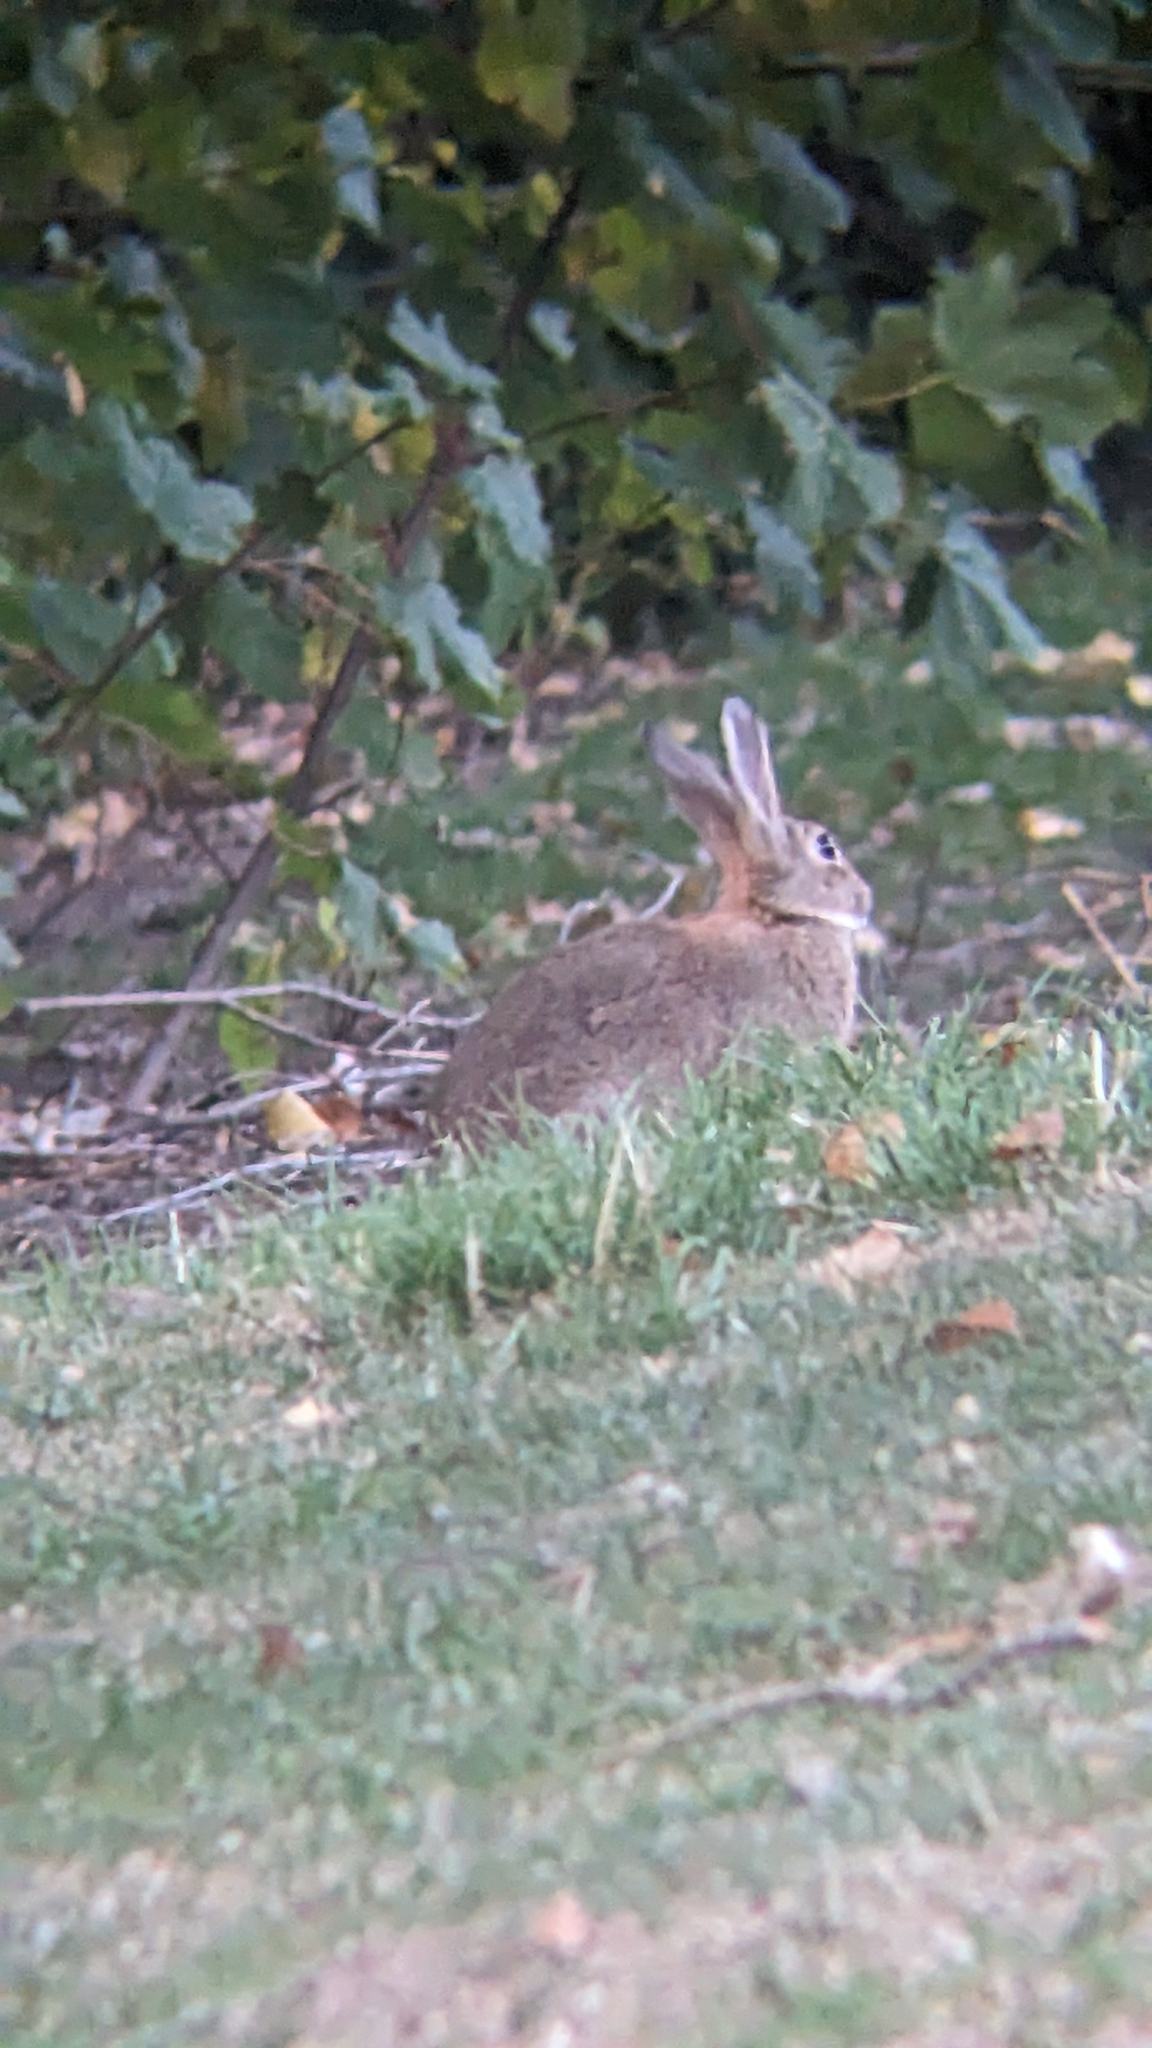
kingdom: Animalia
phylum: Chordata
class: Mammalia
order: Lagomorpha
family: Leporidae
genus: Oryctolagus
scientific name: Oryctolagus cuniculus
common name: European rabbit
